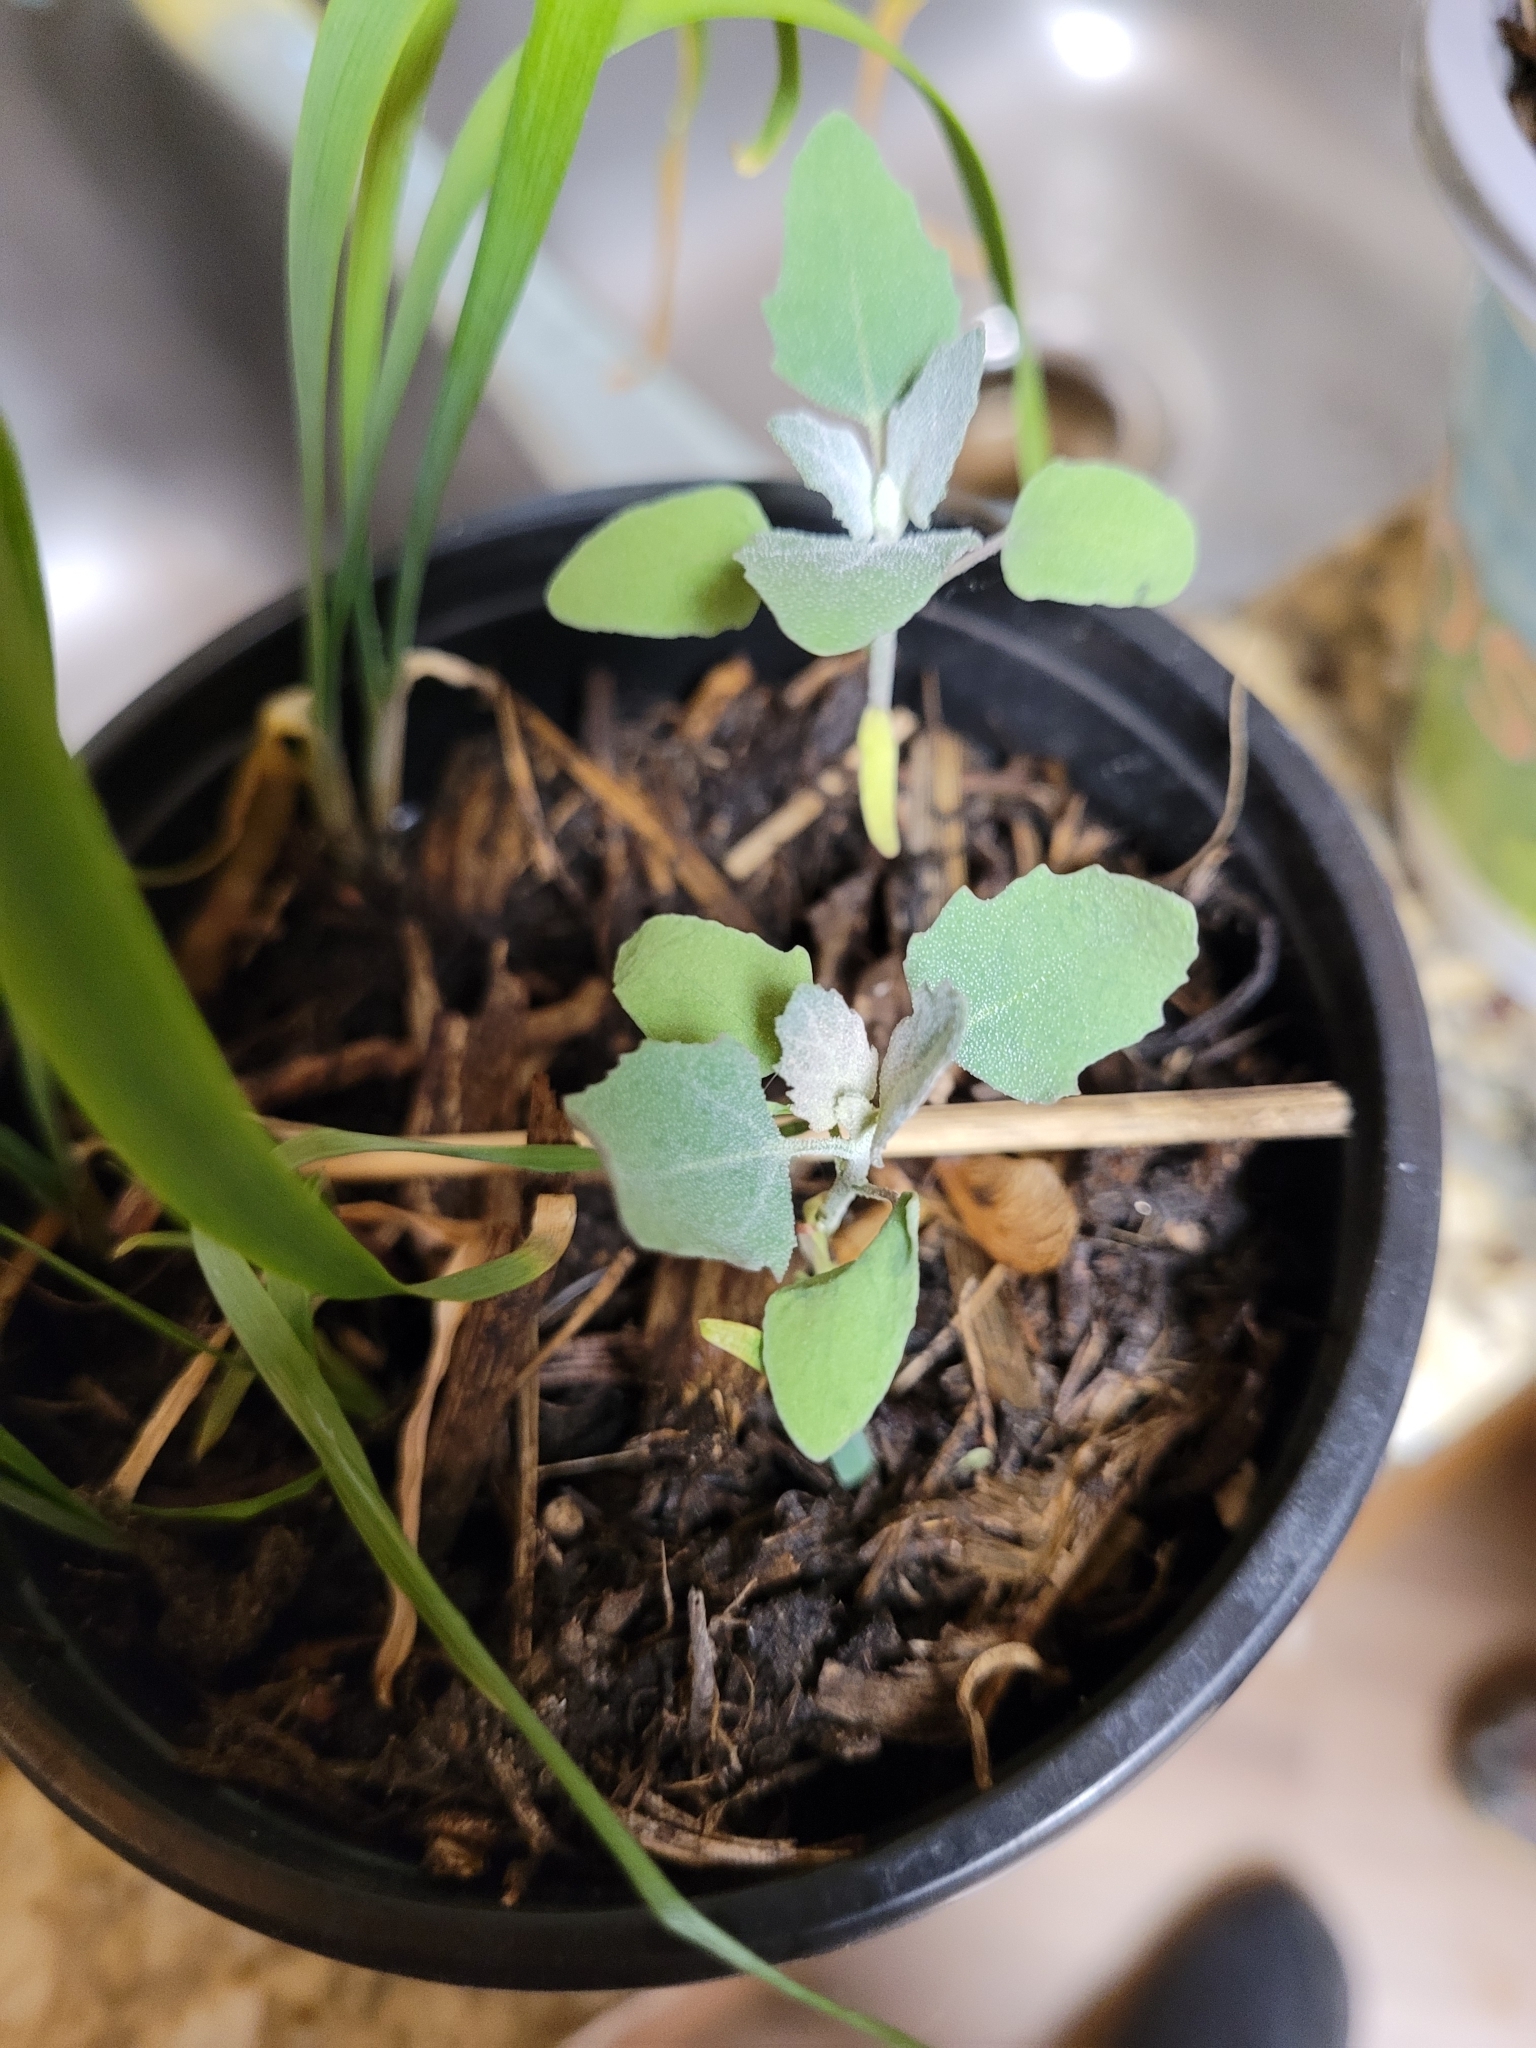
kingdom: Plantae
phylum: Tracheophyta
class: Magnoliopsida
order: Caryophyllales
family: Amaranthaceae
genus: Chenopodium
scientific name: Chenopodium album
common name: Fat-hen
